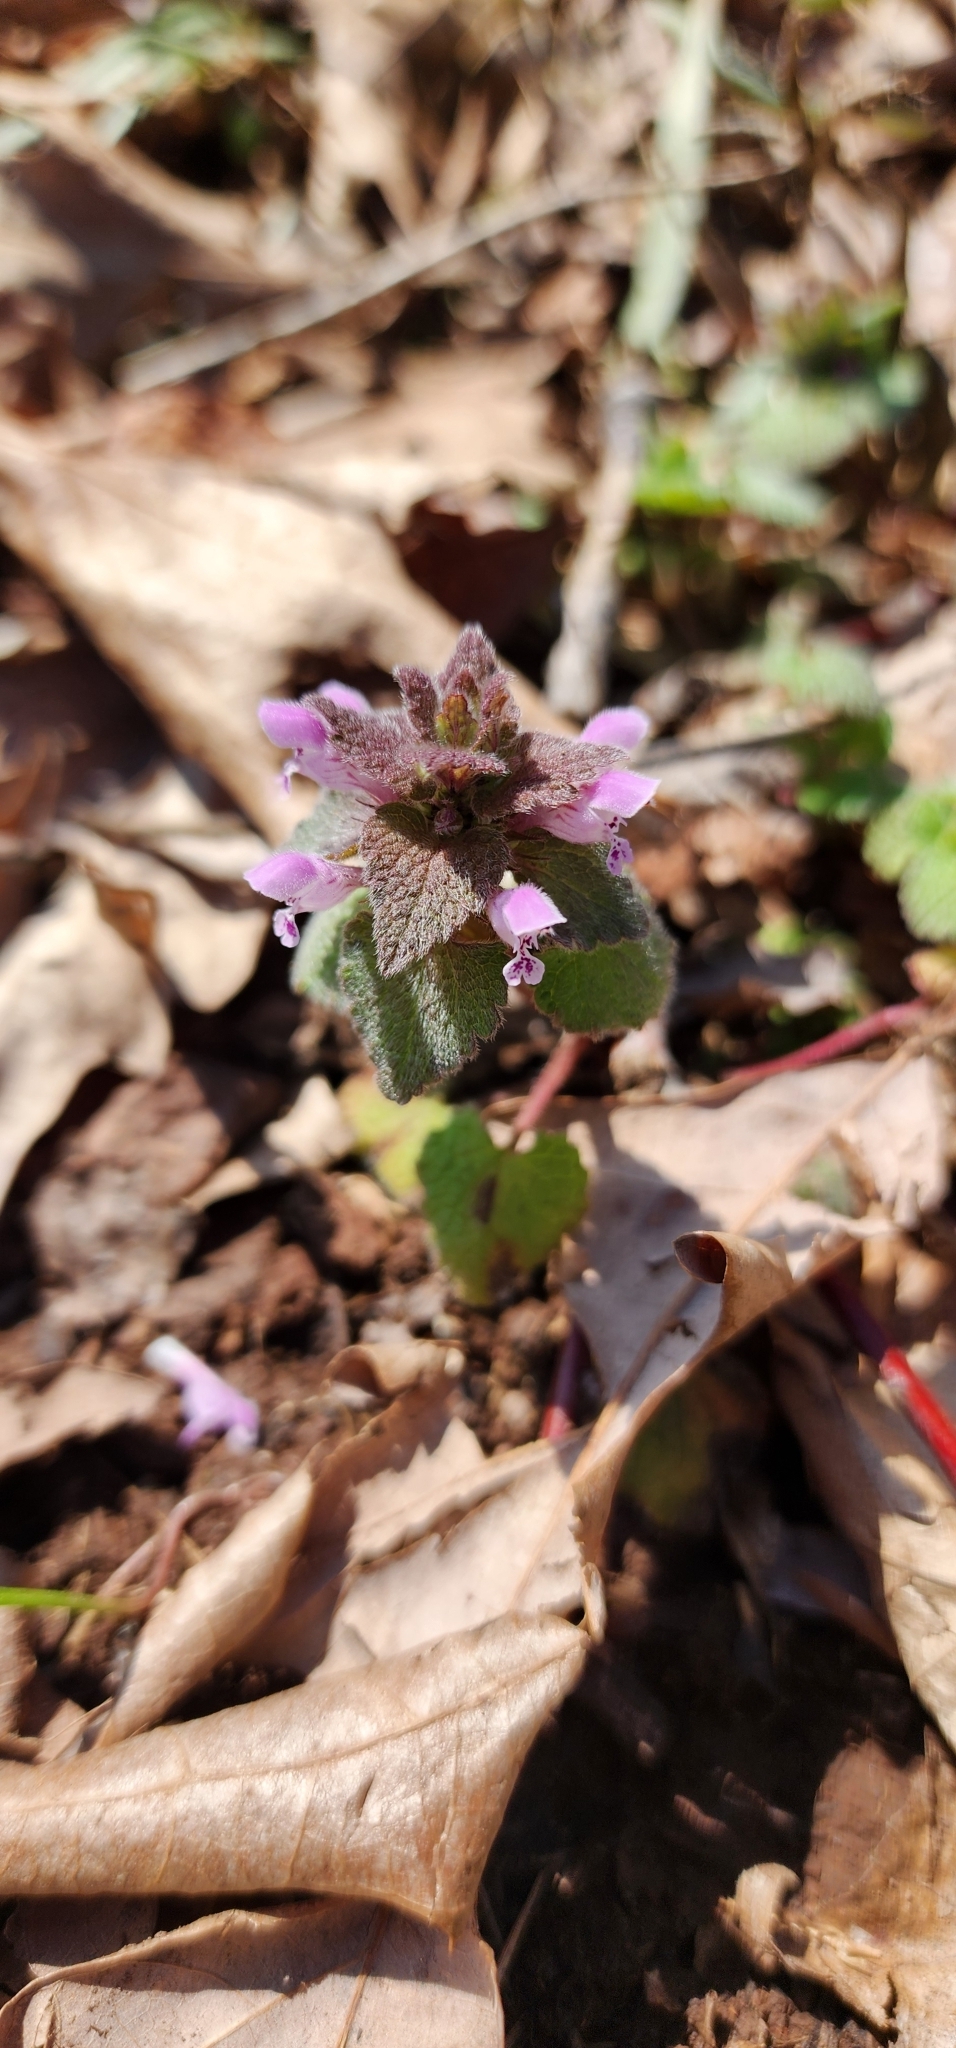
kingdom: Plantae
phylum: Tracheophyta
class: Magnoliopsida
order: Lamiales
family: Lamiaceae
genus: Lamium
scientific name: Lamium purpureum
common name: Red dead-nettle
